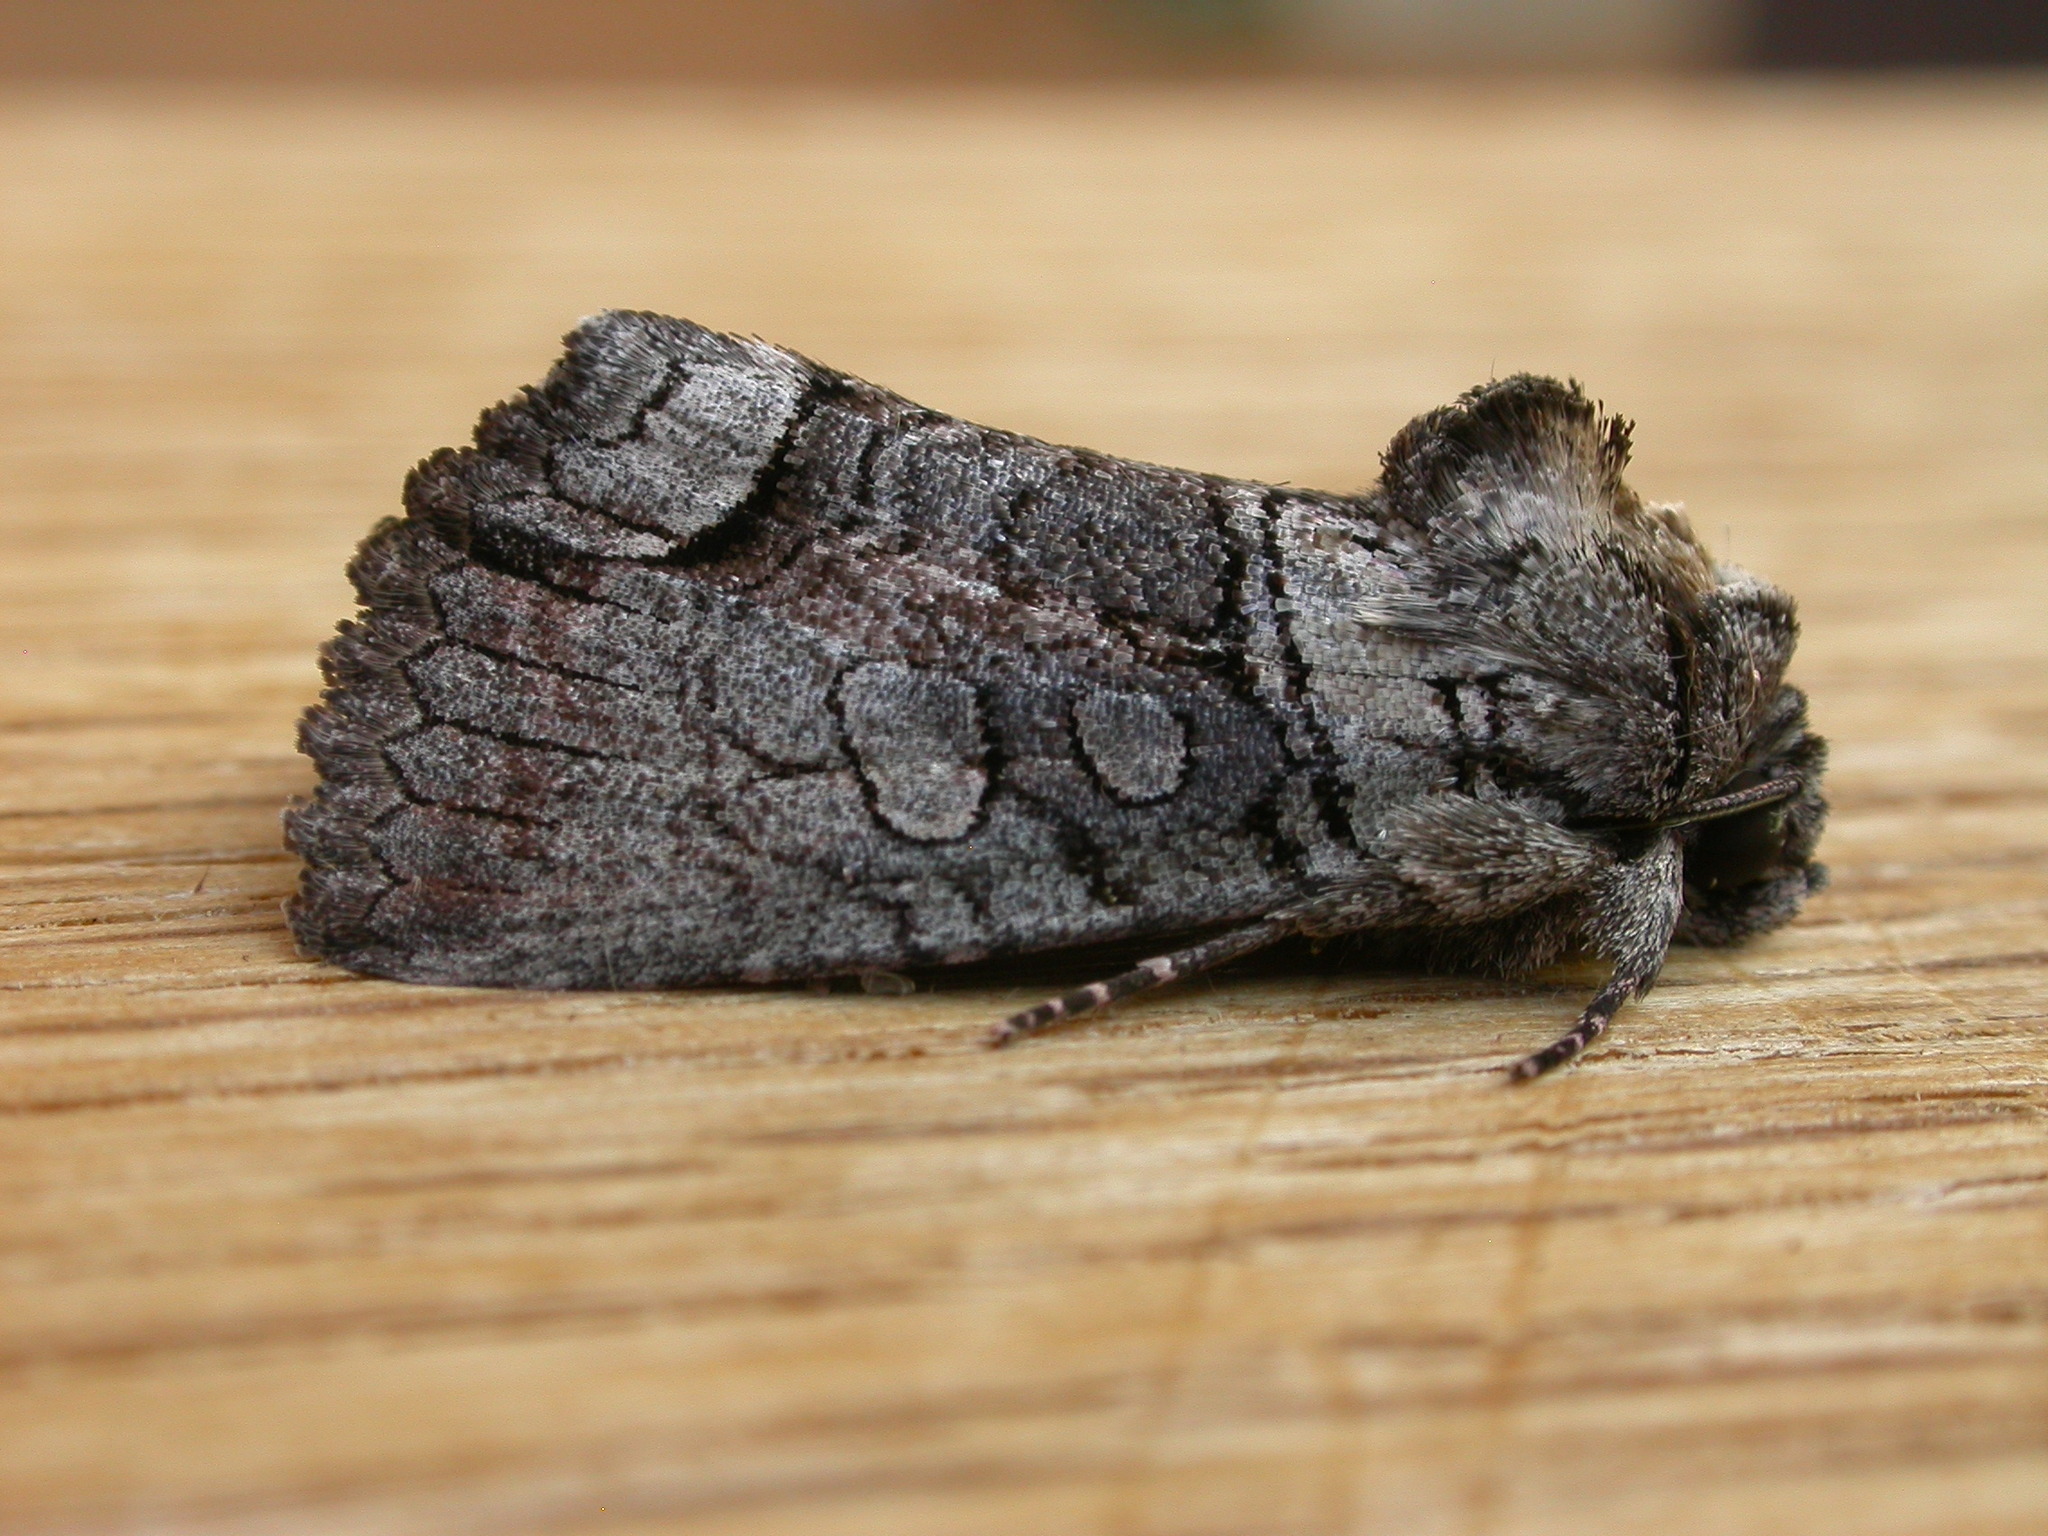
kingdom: Animalia
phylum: Arthropoda
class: Insecta
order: Lepidoptera
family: Noctuidae
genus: Euplexia
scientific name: Euplexia
